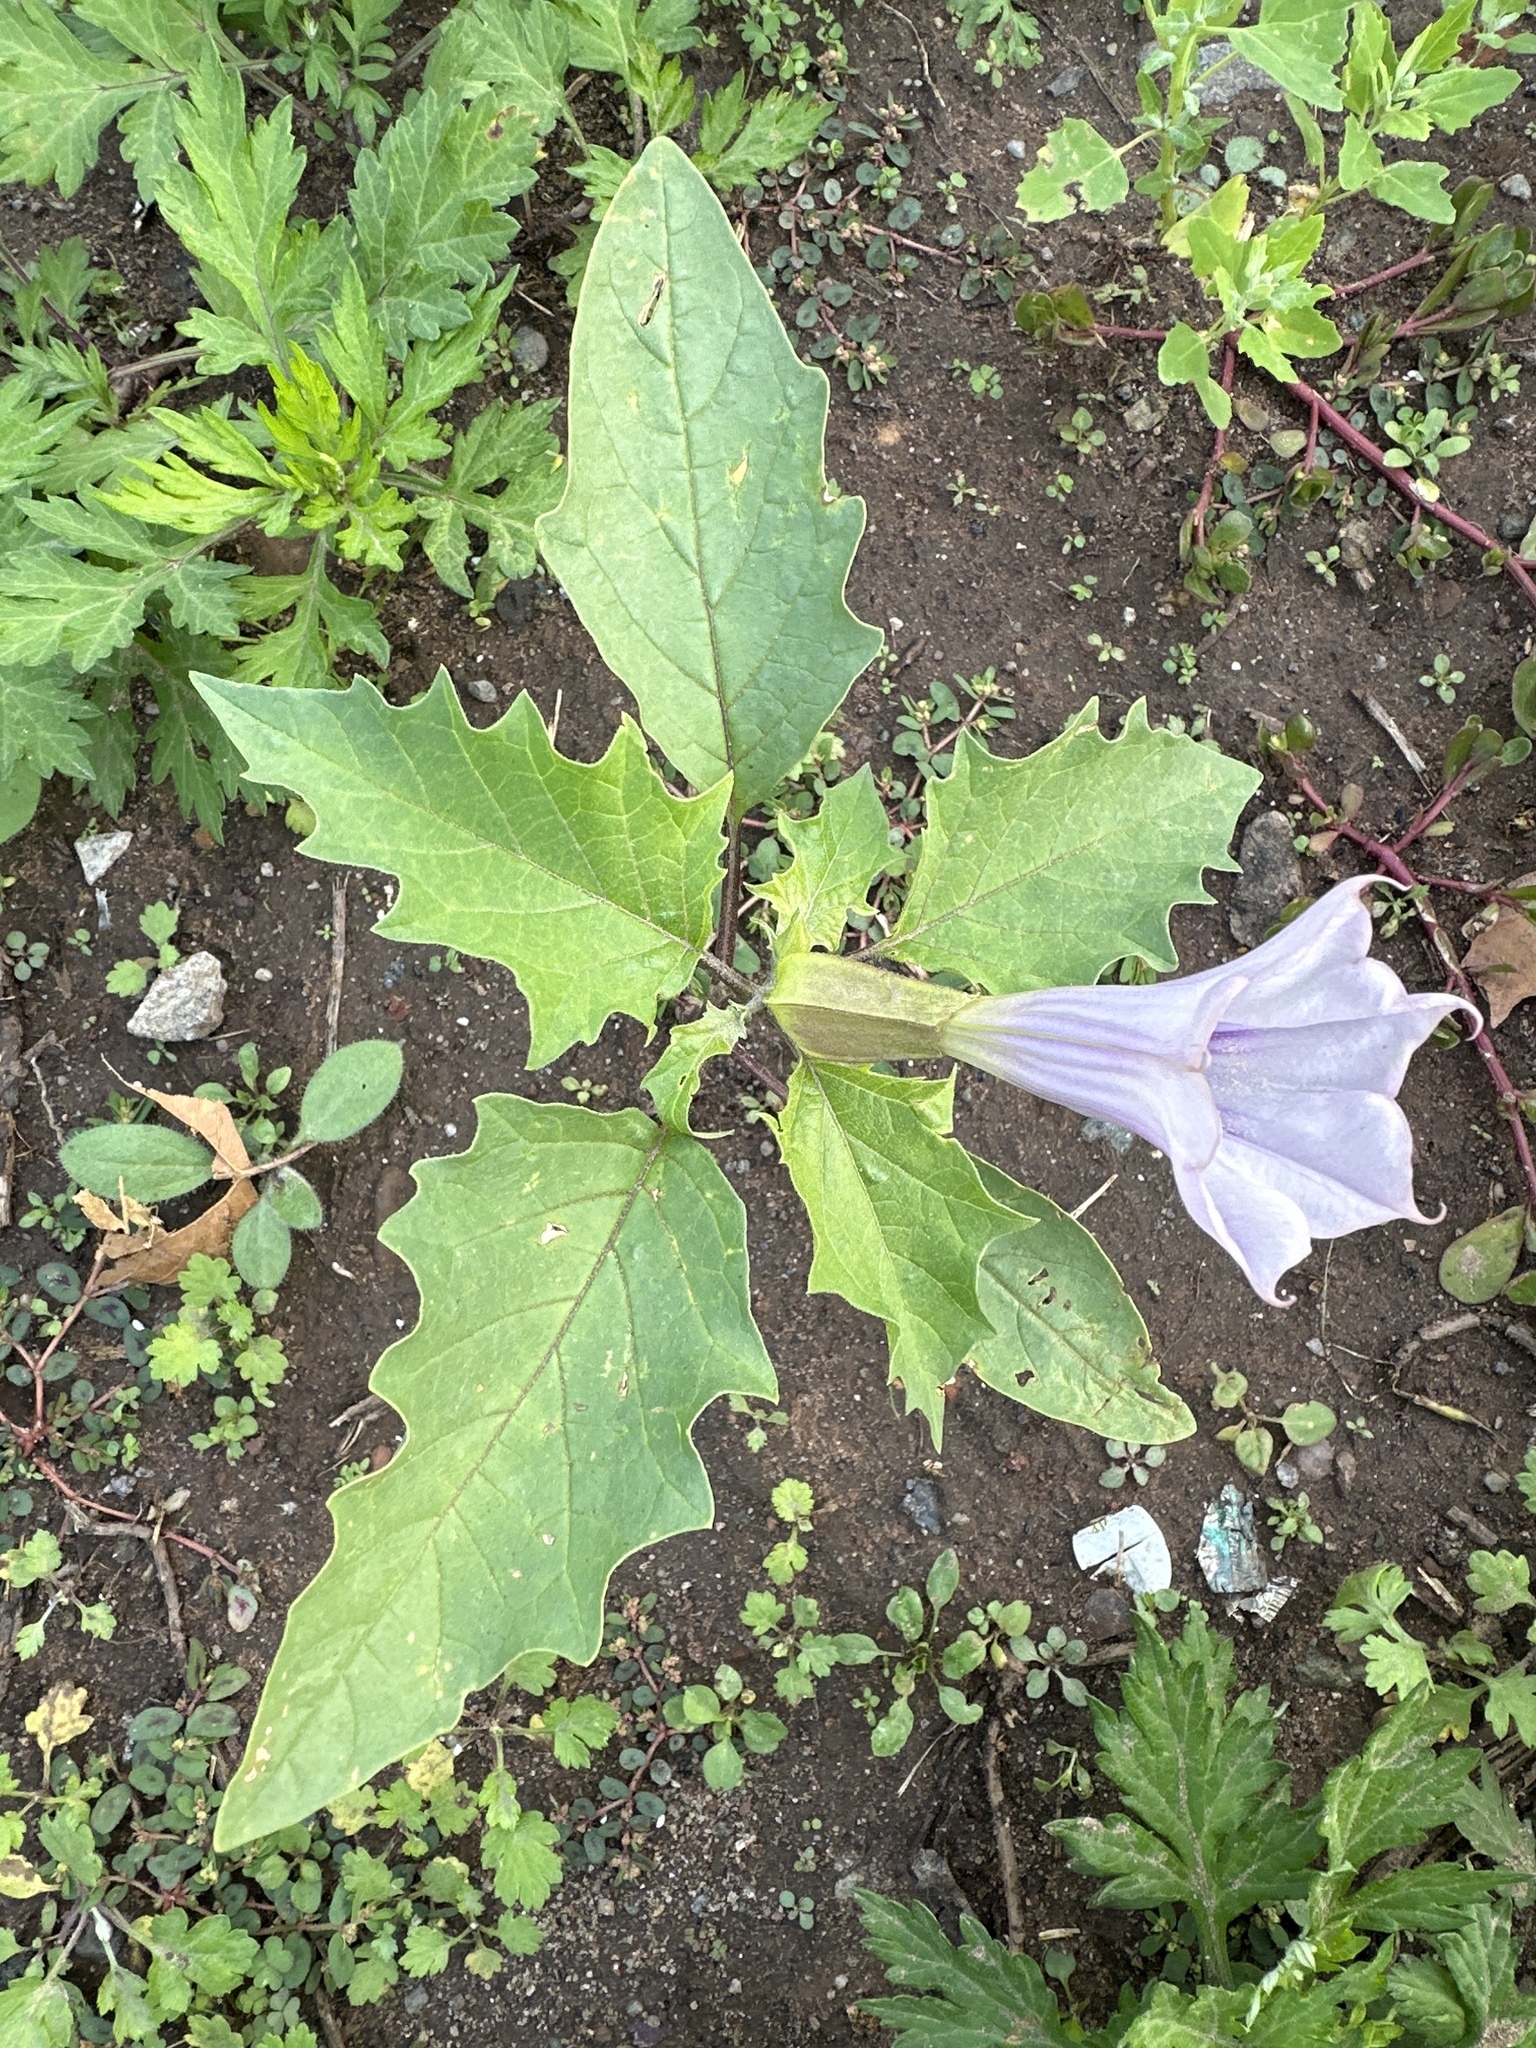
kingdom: Plantae
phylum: Tracheophyta
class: Magnoliopsida
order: Solanales
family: Solanaceae
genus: Datura
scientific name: Datura stramonium
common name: Thorn-apple
